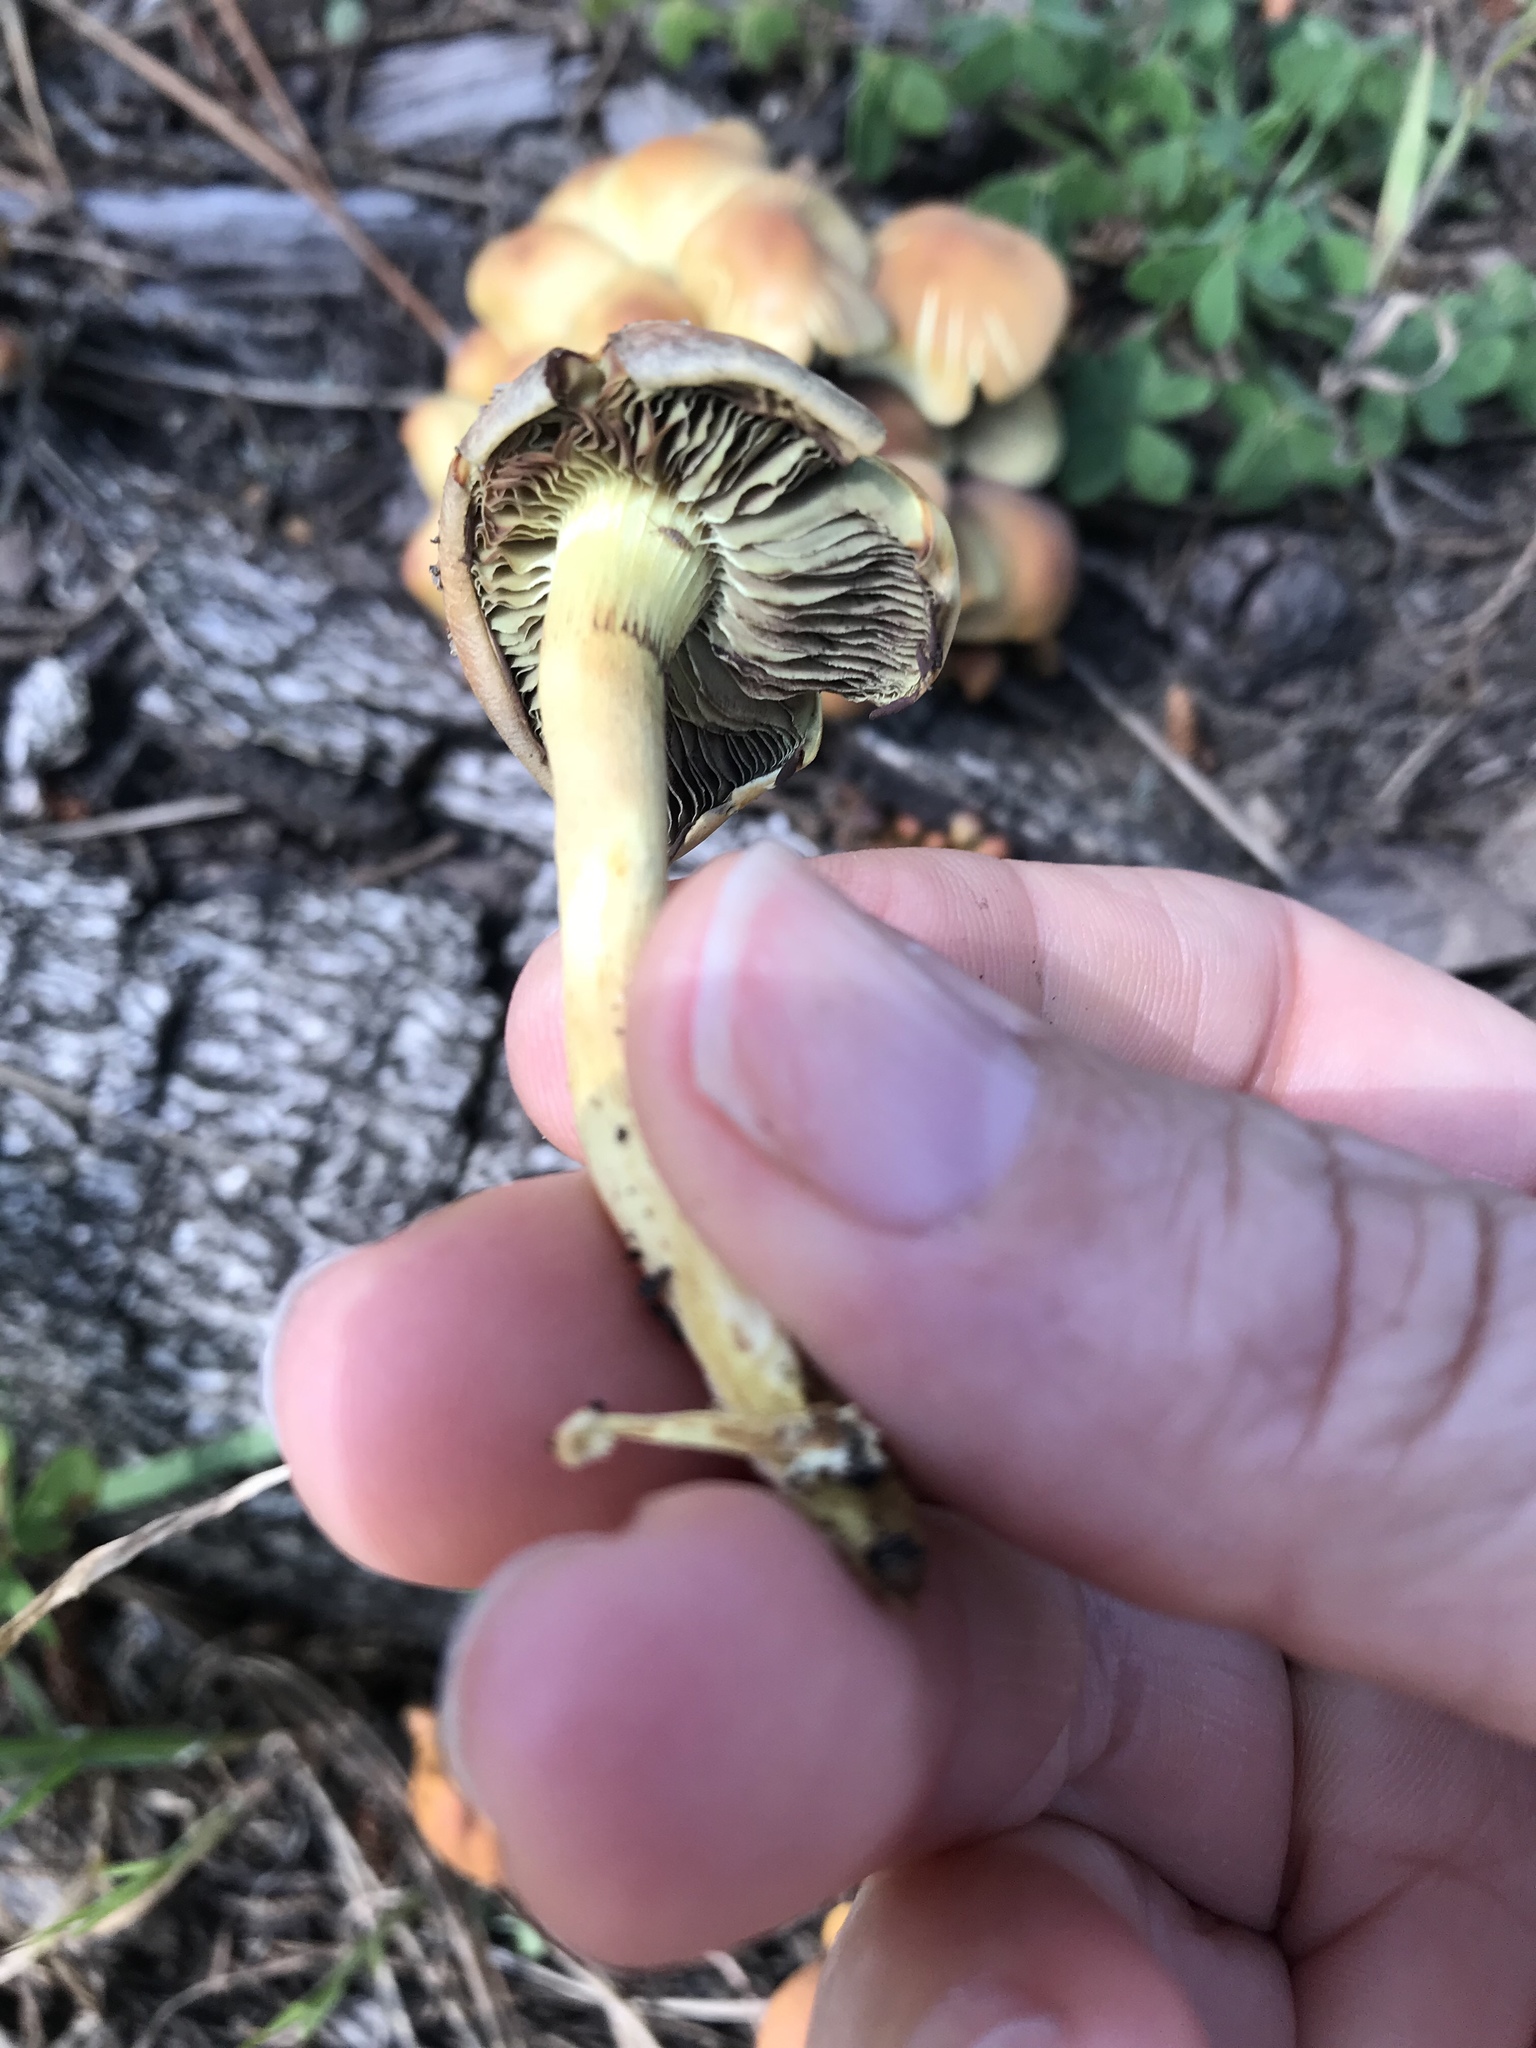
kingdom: Fungi
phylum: Basidiomycota
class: Agaricomycetes
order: Agaricales
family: Strophariaceae
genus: Hypholoma
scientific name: Hypholoma fasciculare
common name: Sulphur tuft
